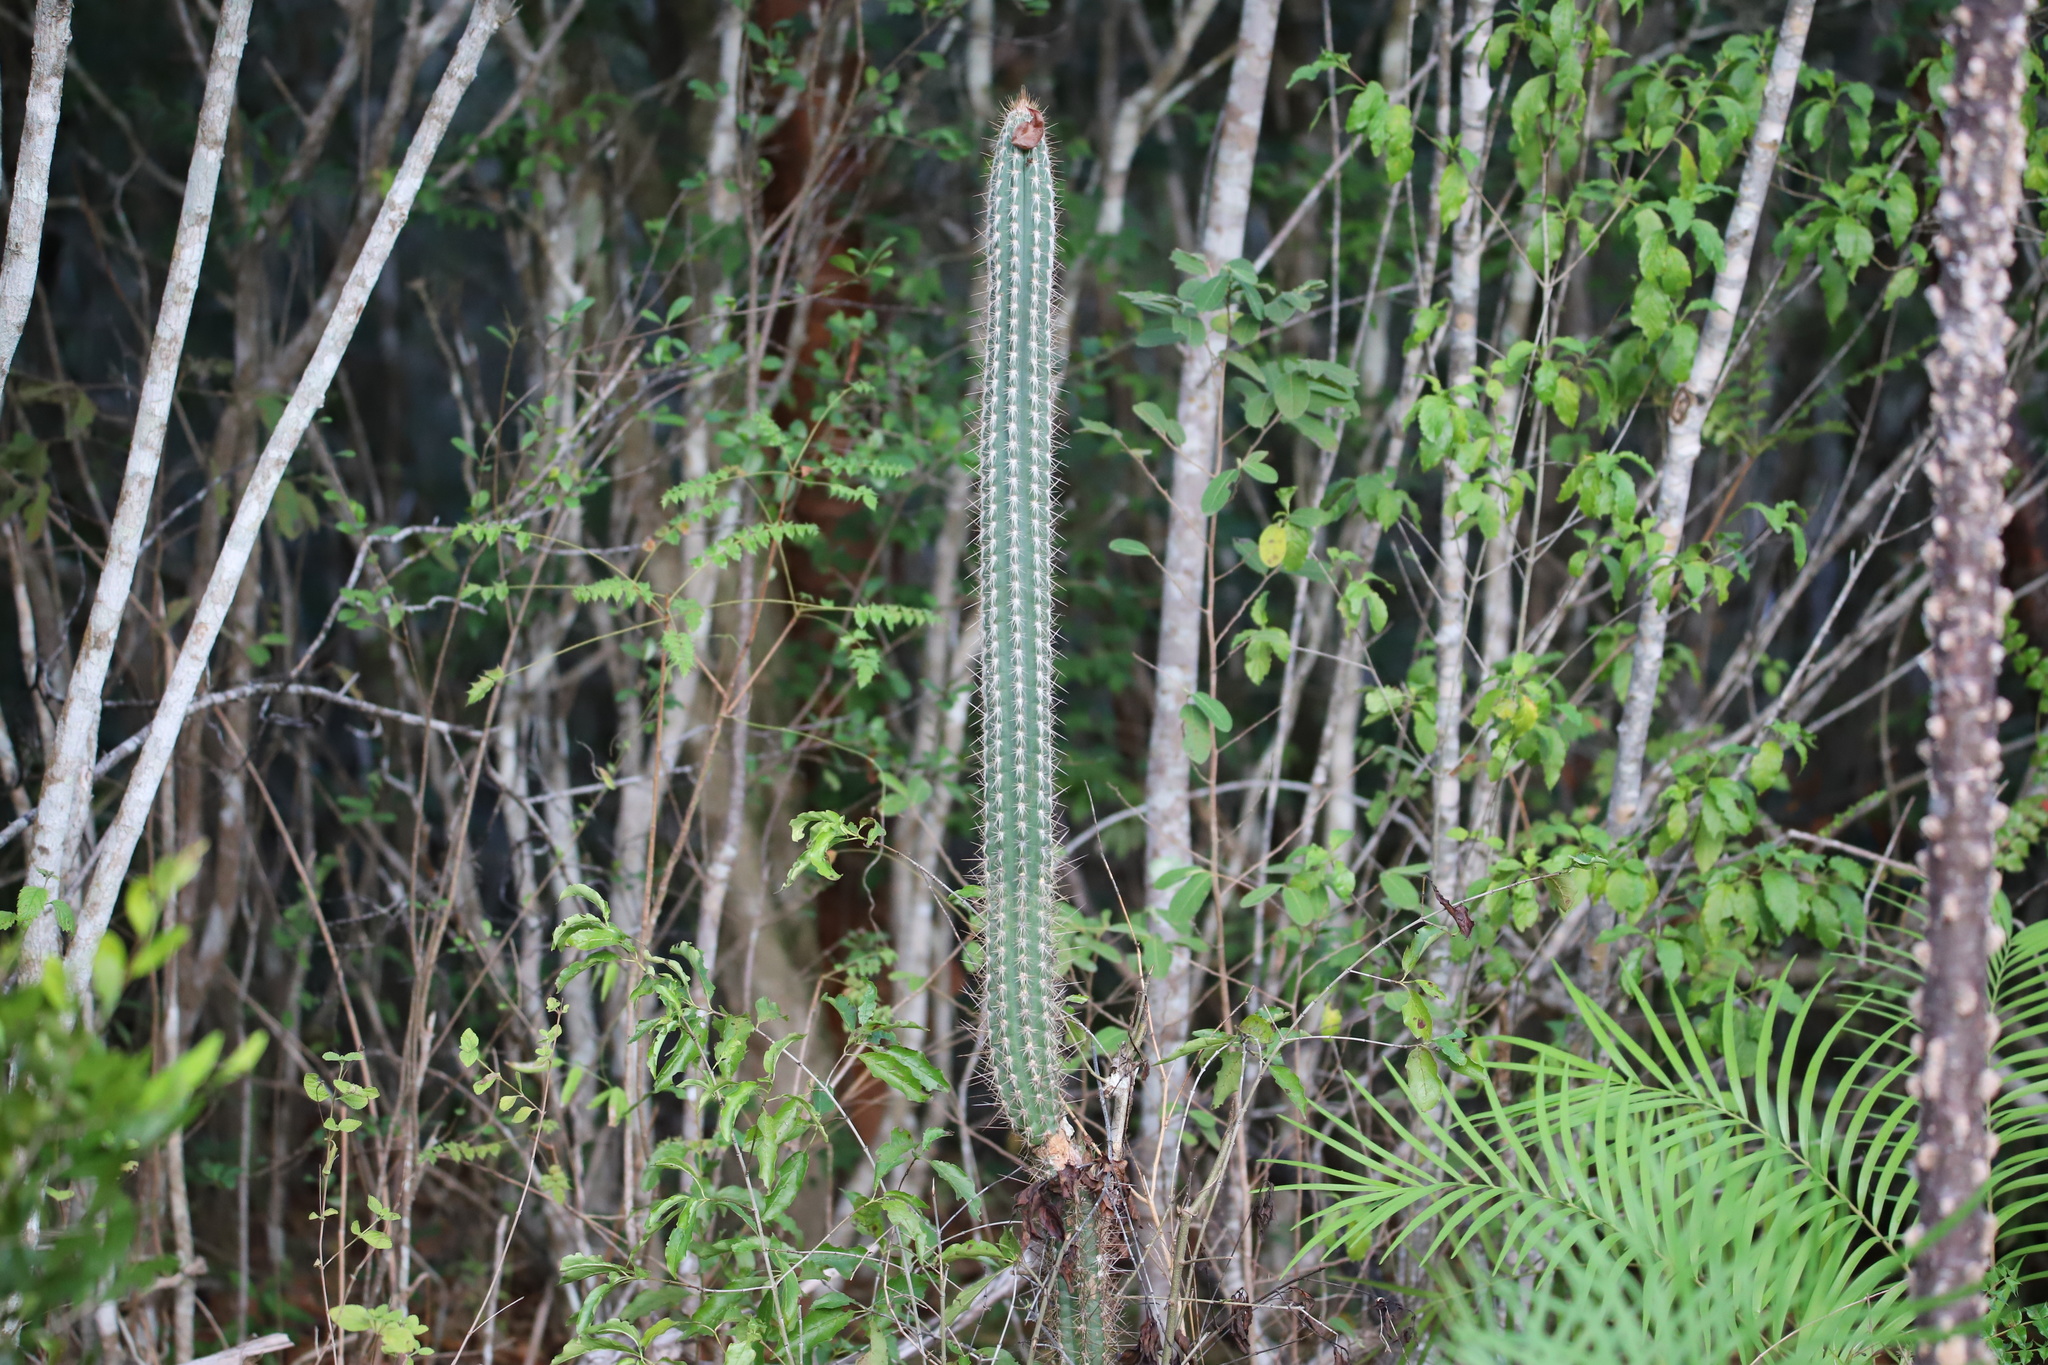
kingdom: Plantae
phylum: Tracheophyta
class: Magnoliopsida
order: Caryophyllales
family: Cactaceae
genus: Pilosocereus
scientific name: Pilosocereus polygonus
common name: Key tree cactus
